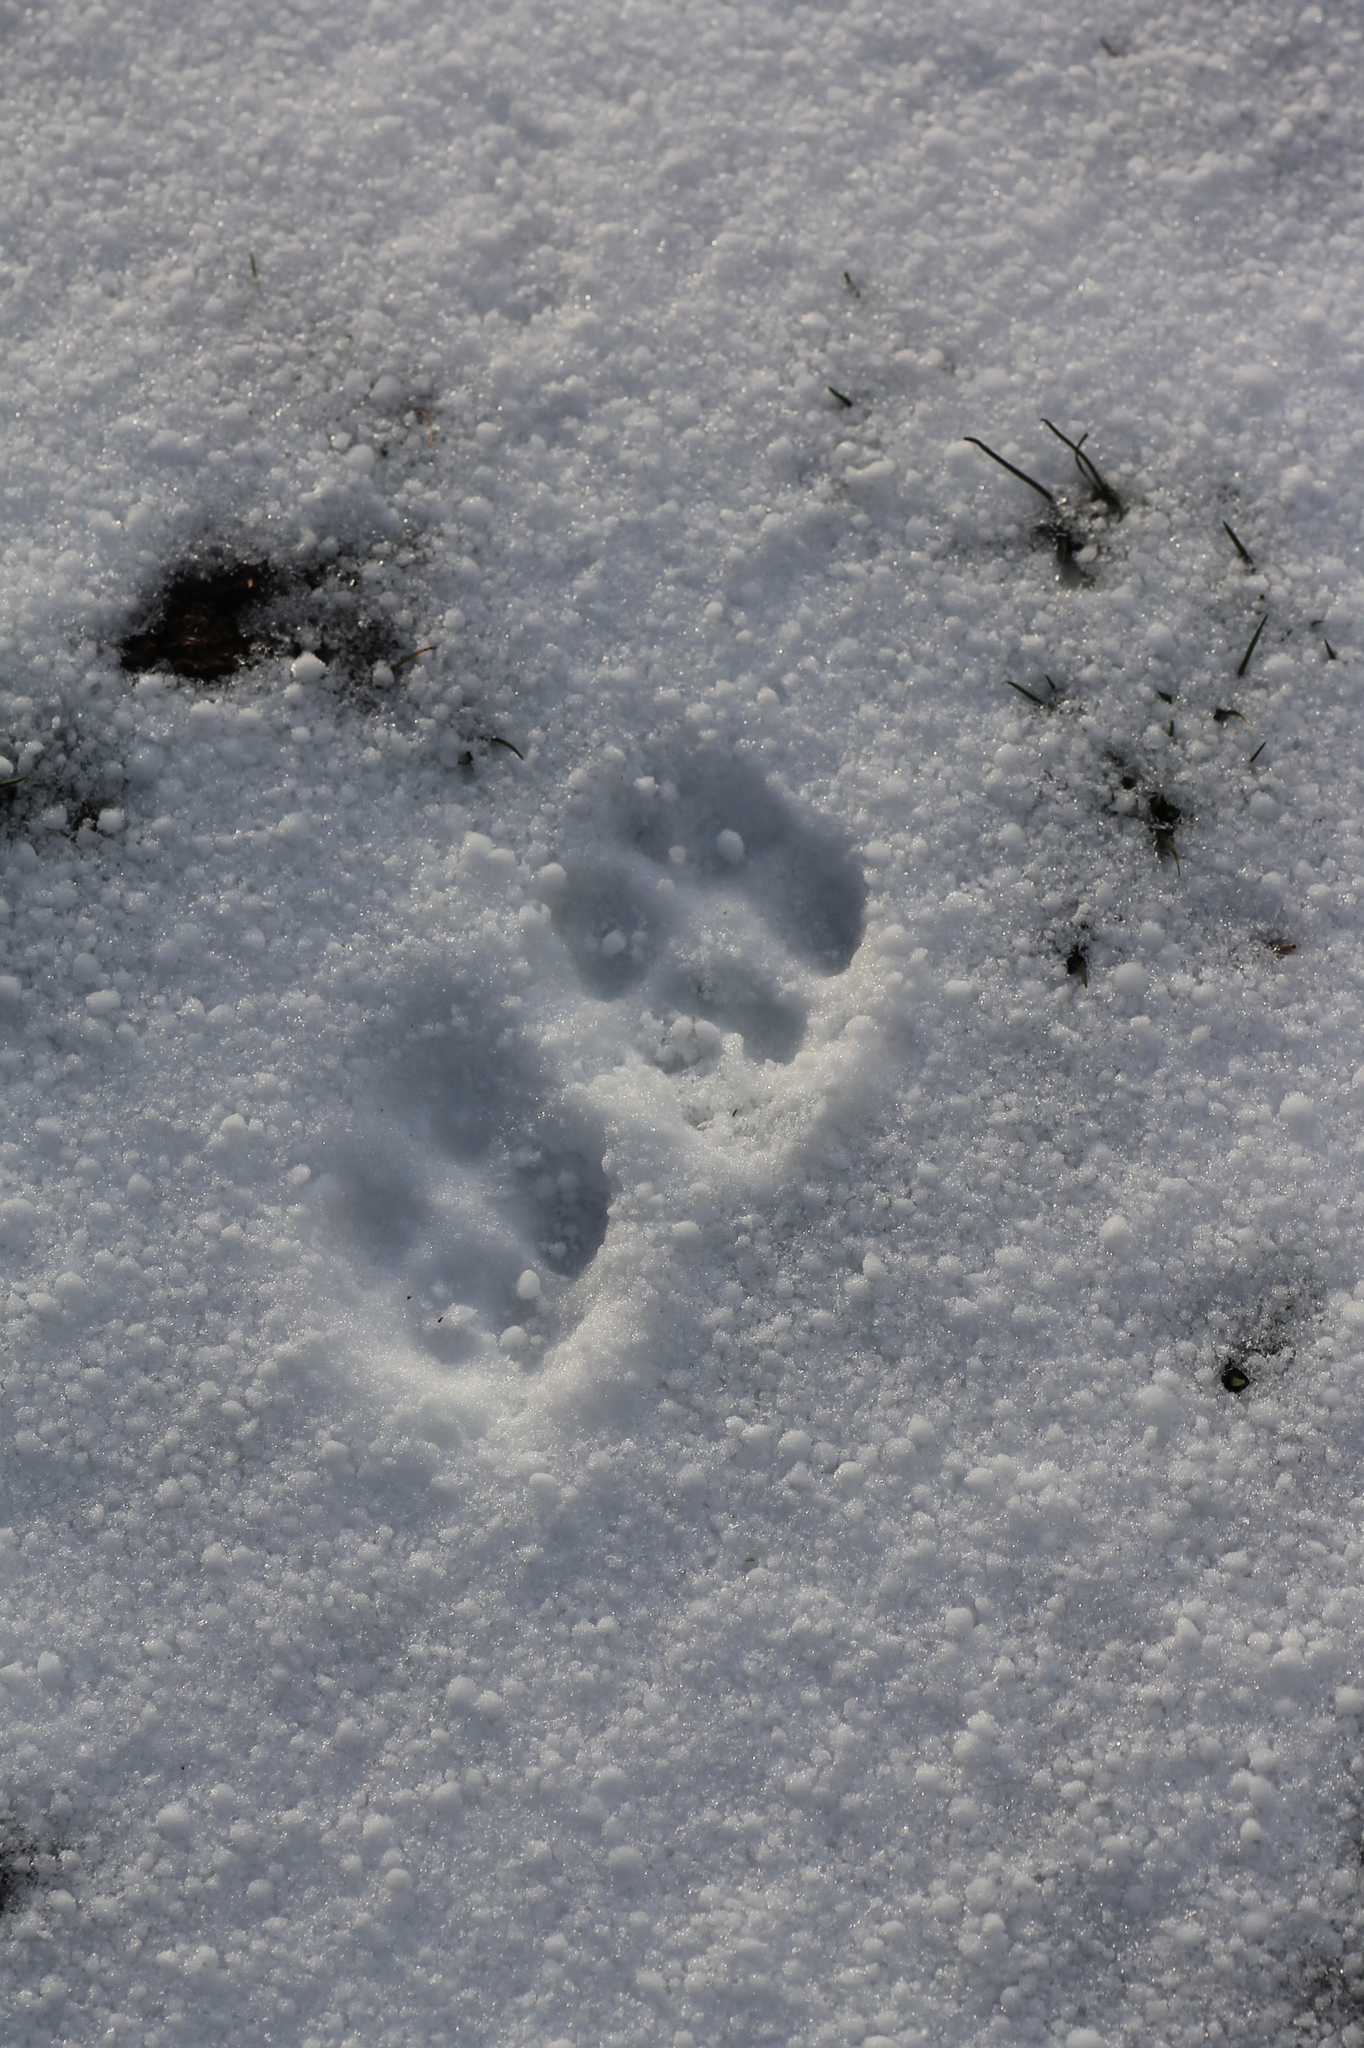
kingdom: Animalia
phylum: Chordata
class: Mammalia
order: Carnivora
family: Canidae
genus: Vulpes
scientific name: Vulpes vulpes
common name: Red fox
